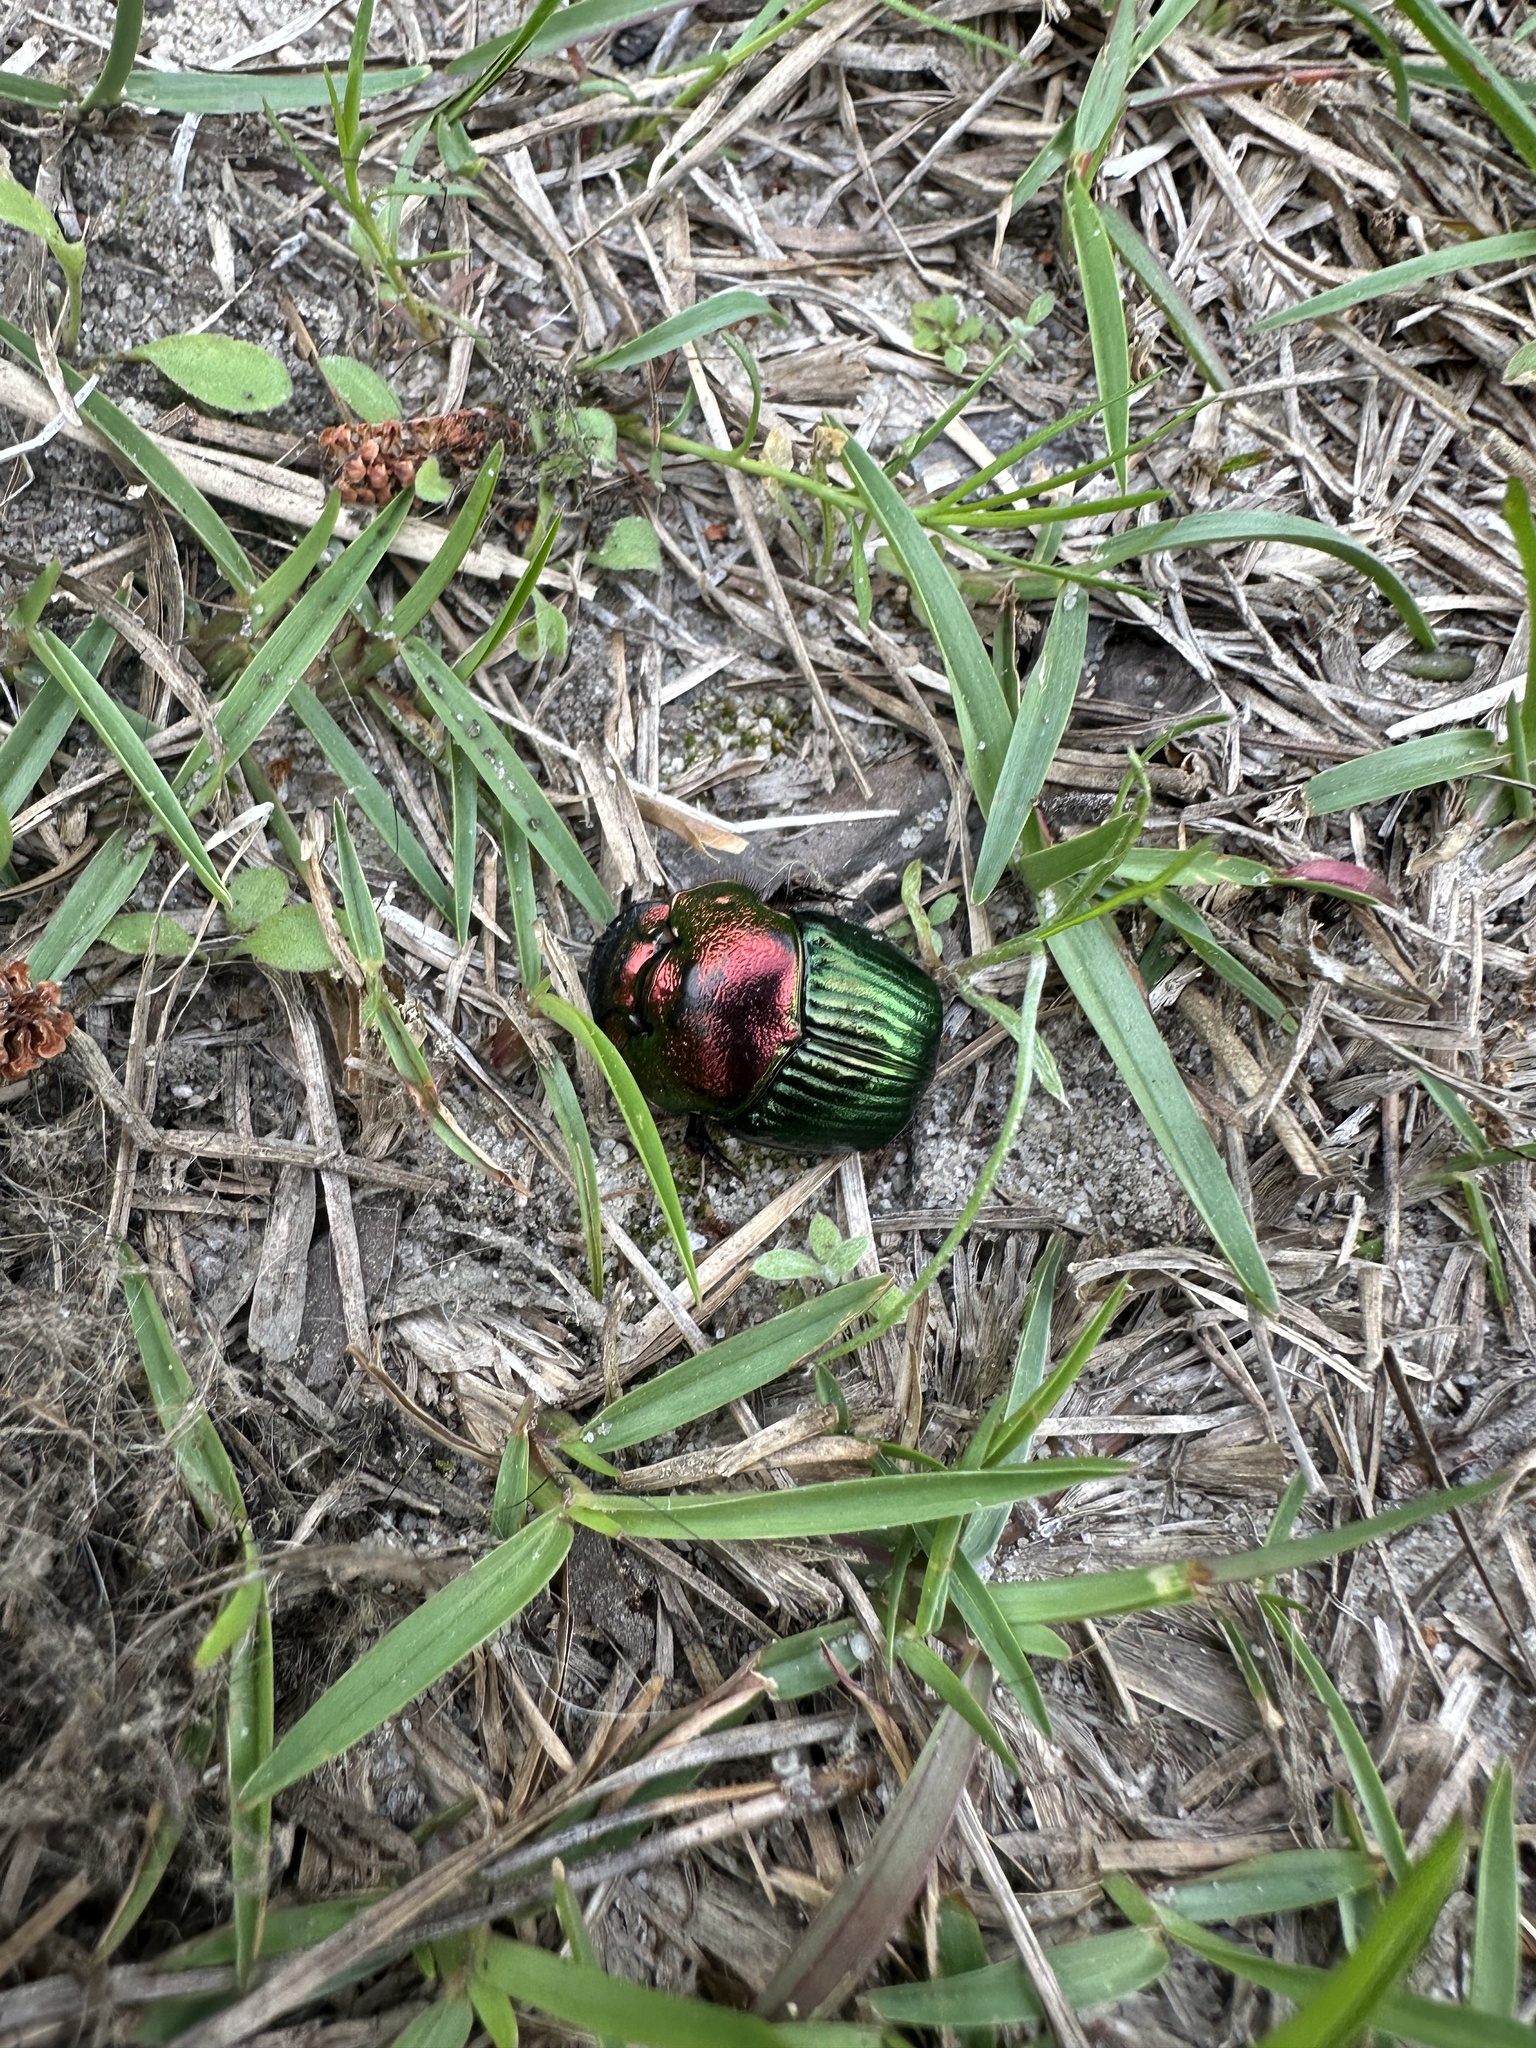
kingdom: Animalia
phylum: Arthropoda
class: Insecta
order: Coleoptera
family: Scarabaeidae
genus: Phanaeus
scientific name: Phanaeus igneus
